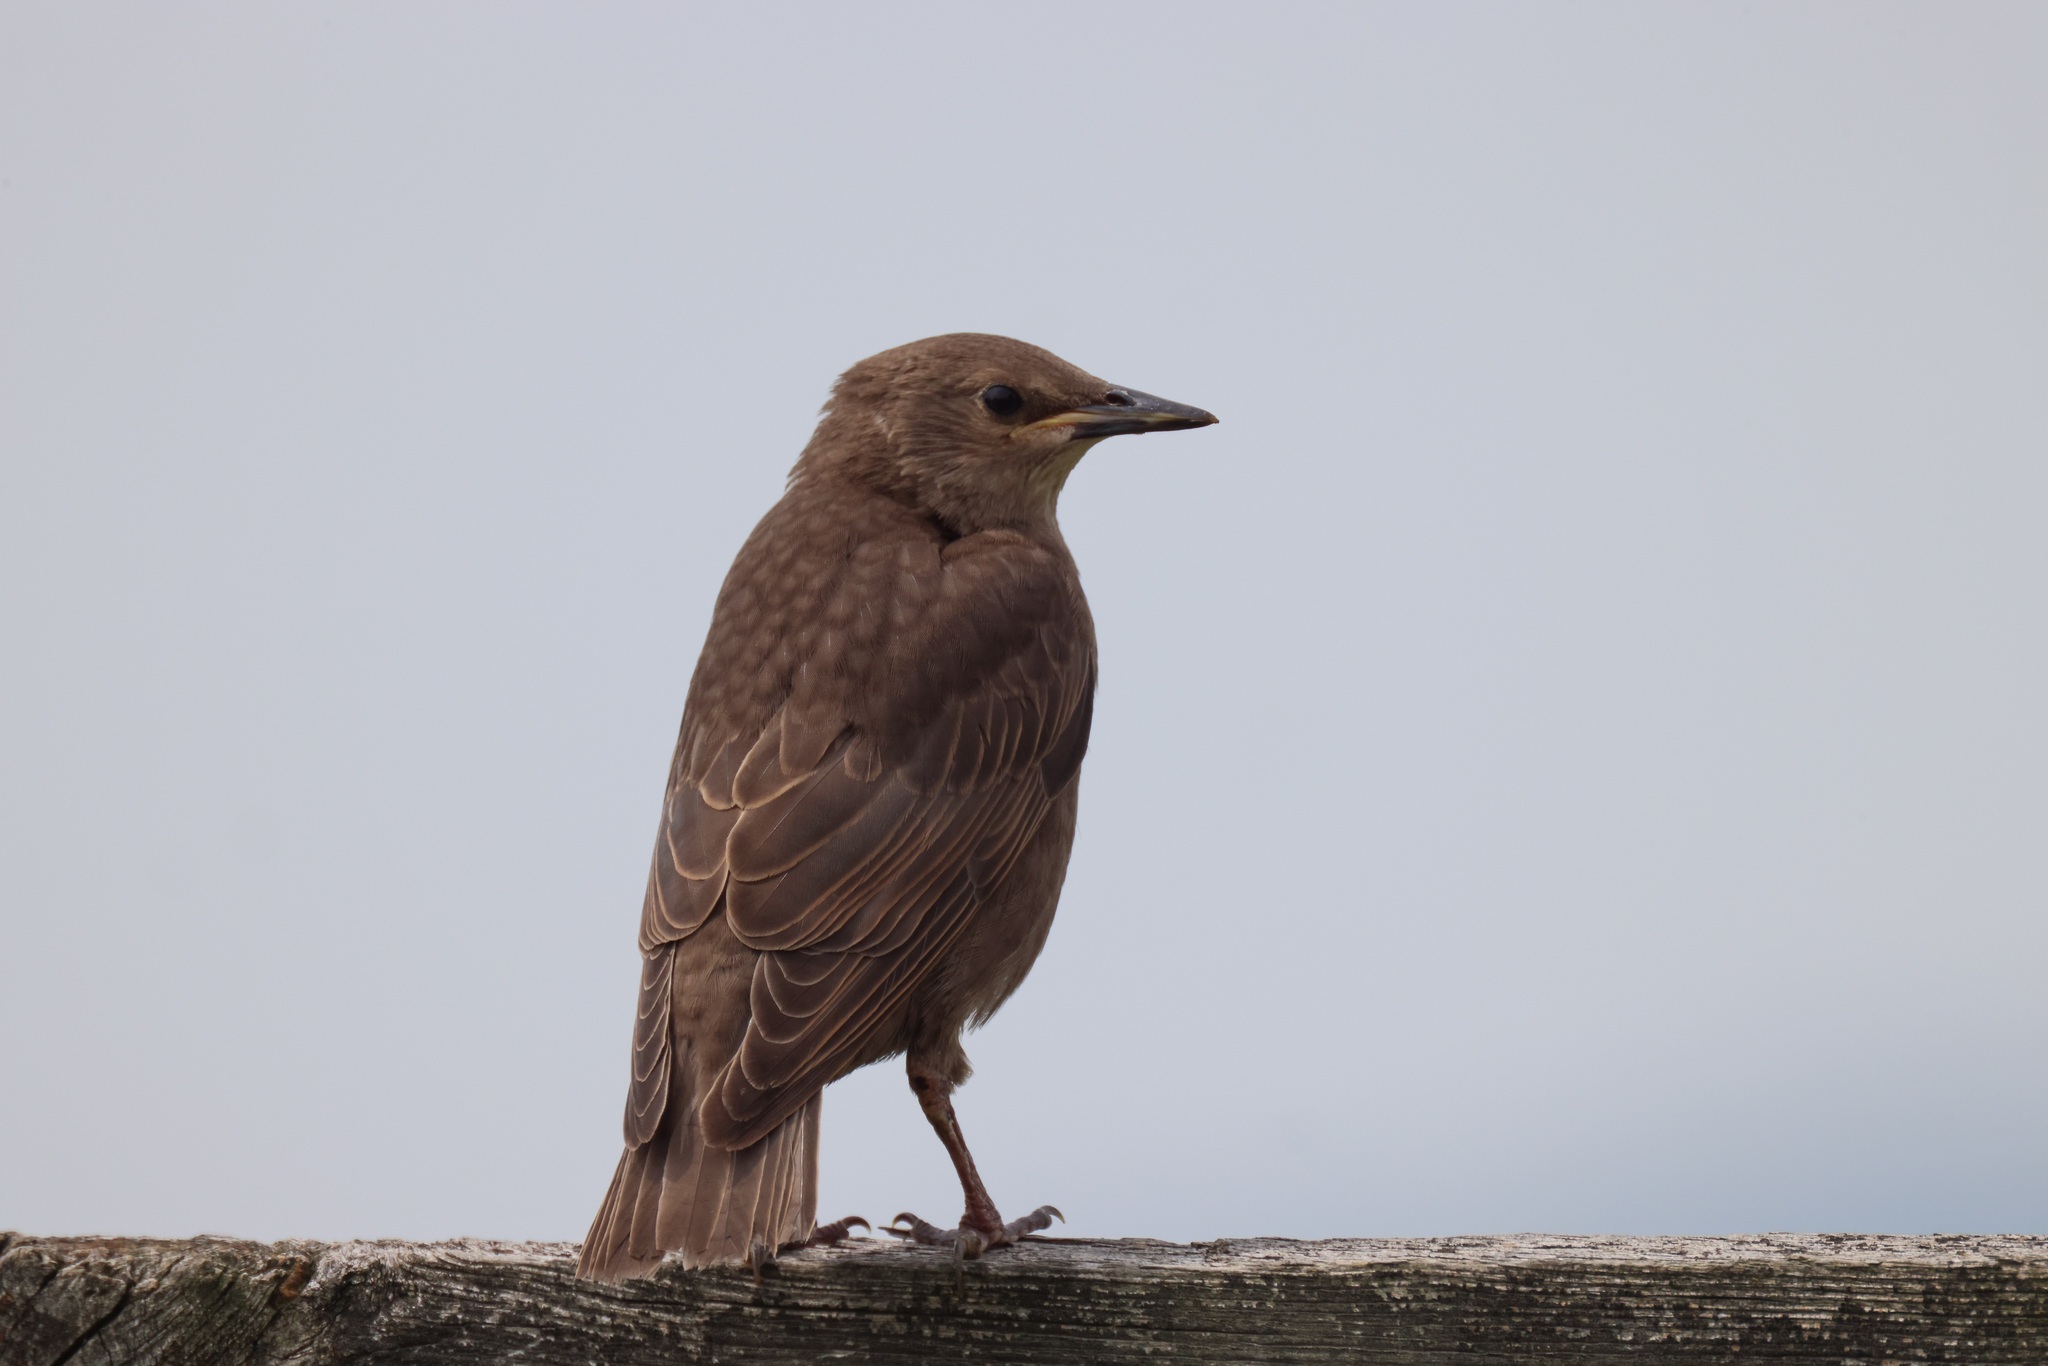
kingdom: Animalia
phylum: Chordata
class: Aves
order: Passeriformes
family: Sturnidae
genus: Sturnus
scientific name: Sturnus vulgaris
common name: Common starling
